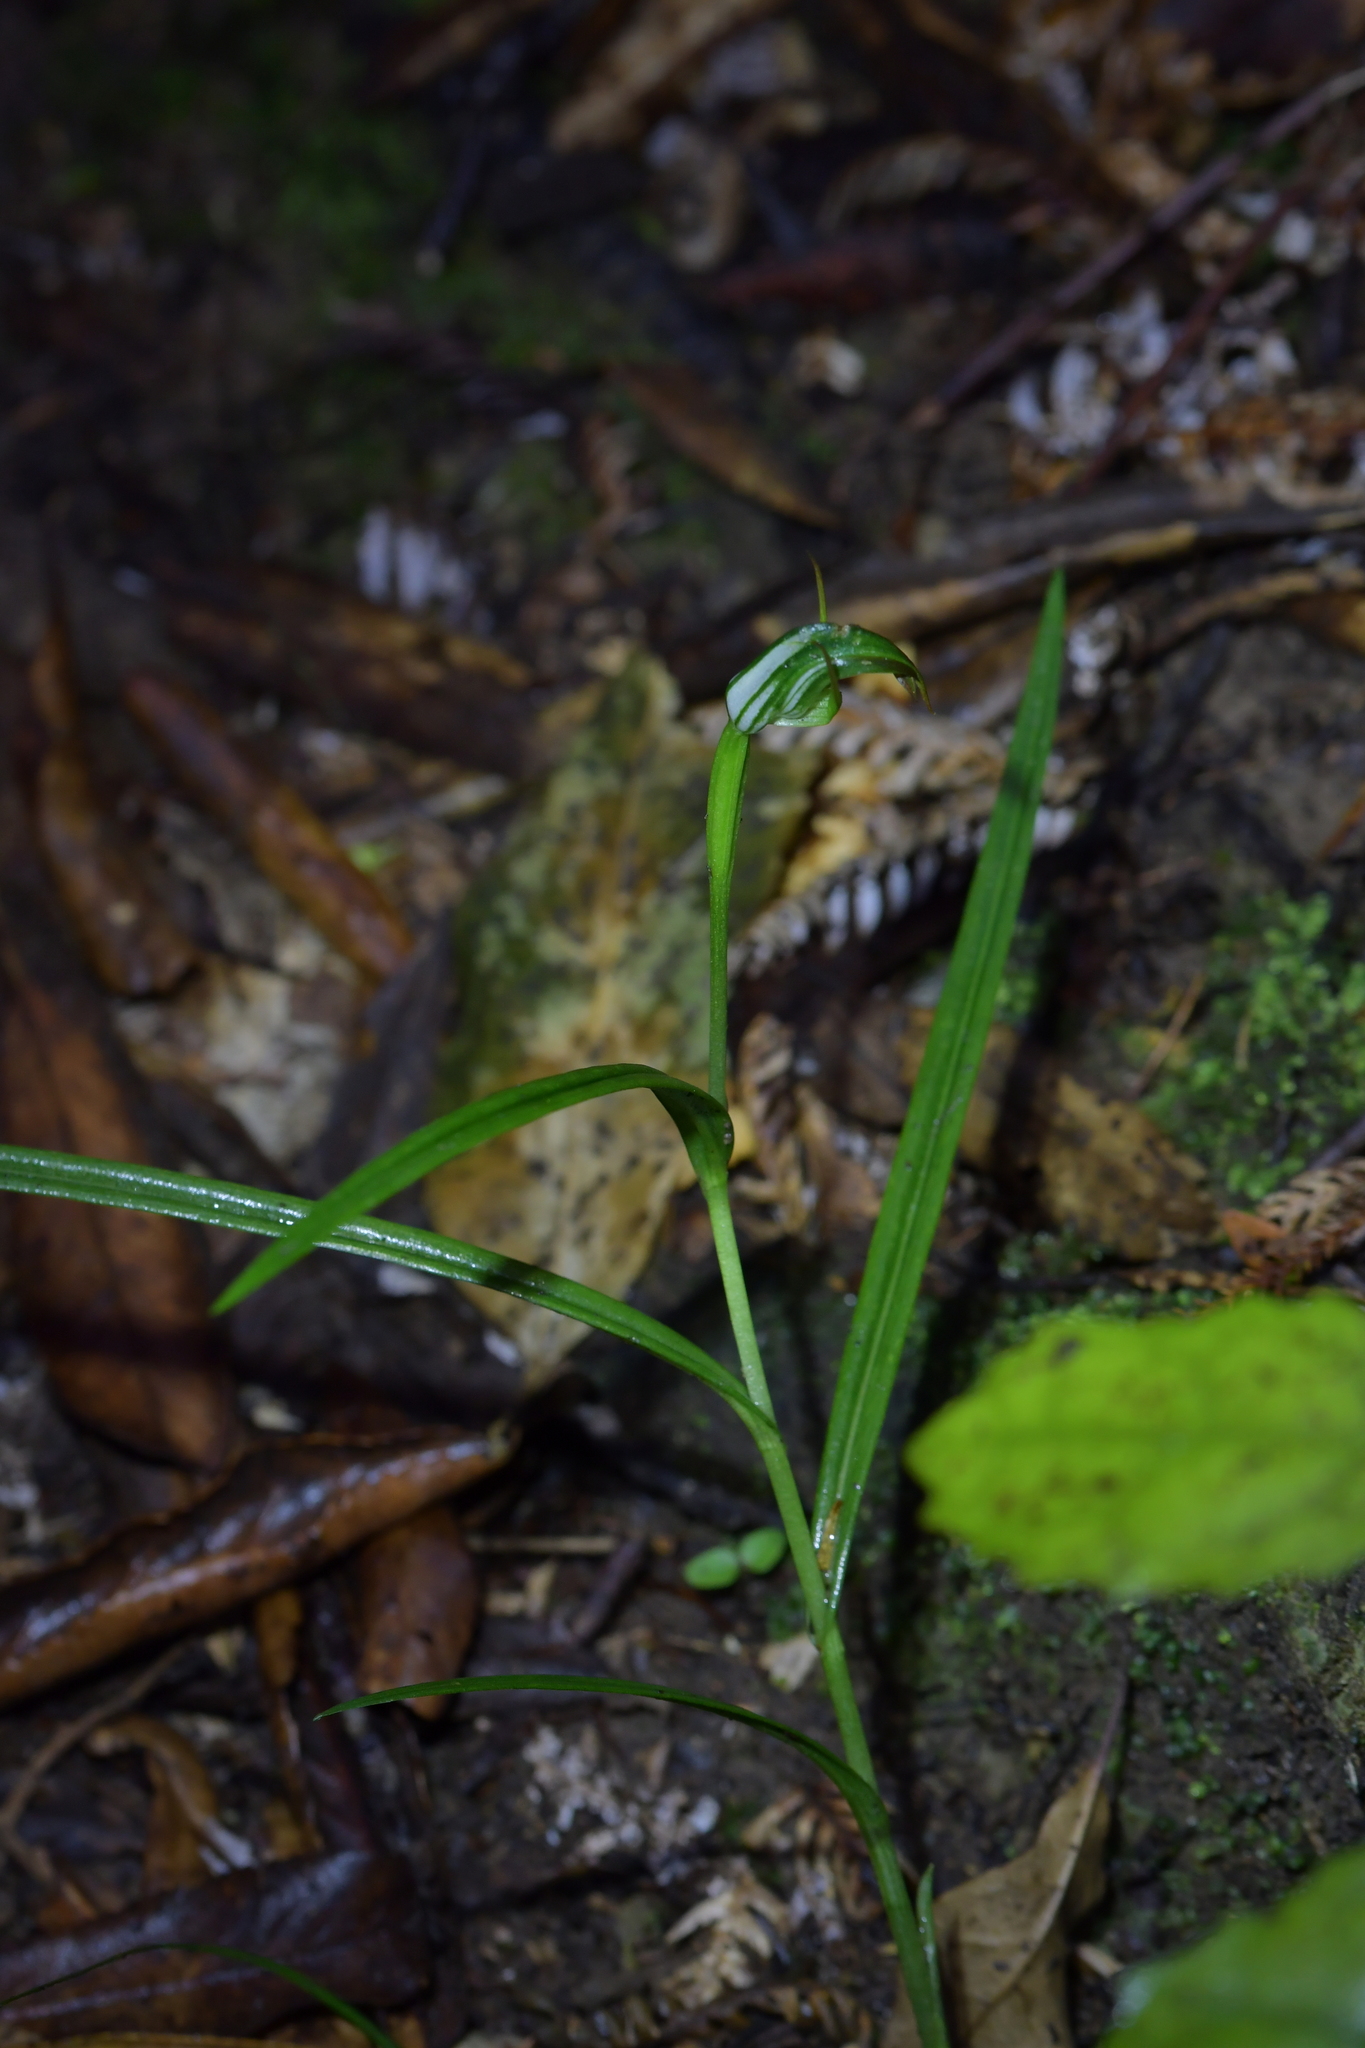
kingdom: Plantae
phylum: Tracheophyta
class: Liliopsida
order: Asparagales
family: Orchidaceae
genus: Pterostylis
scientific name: Pterostylis graminea
